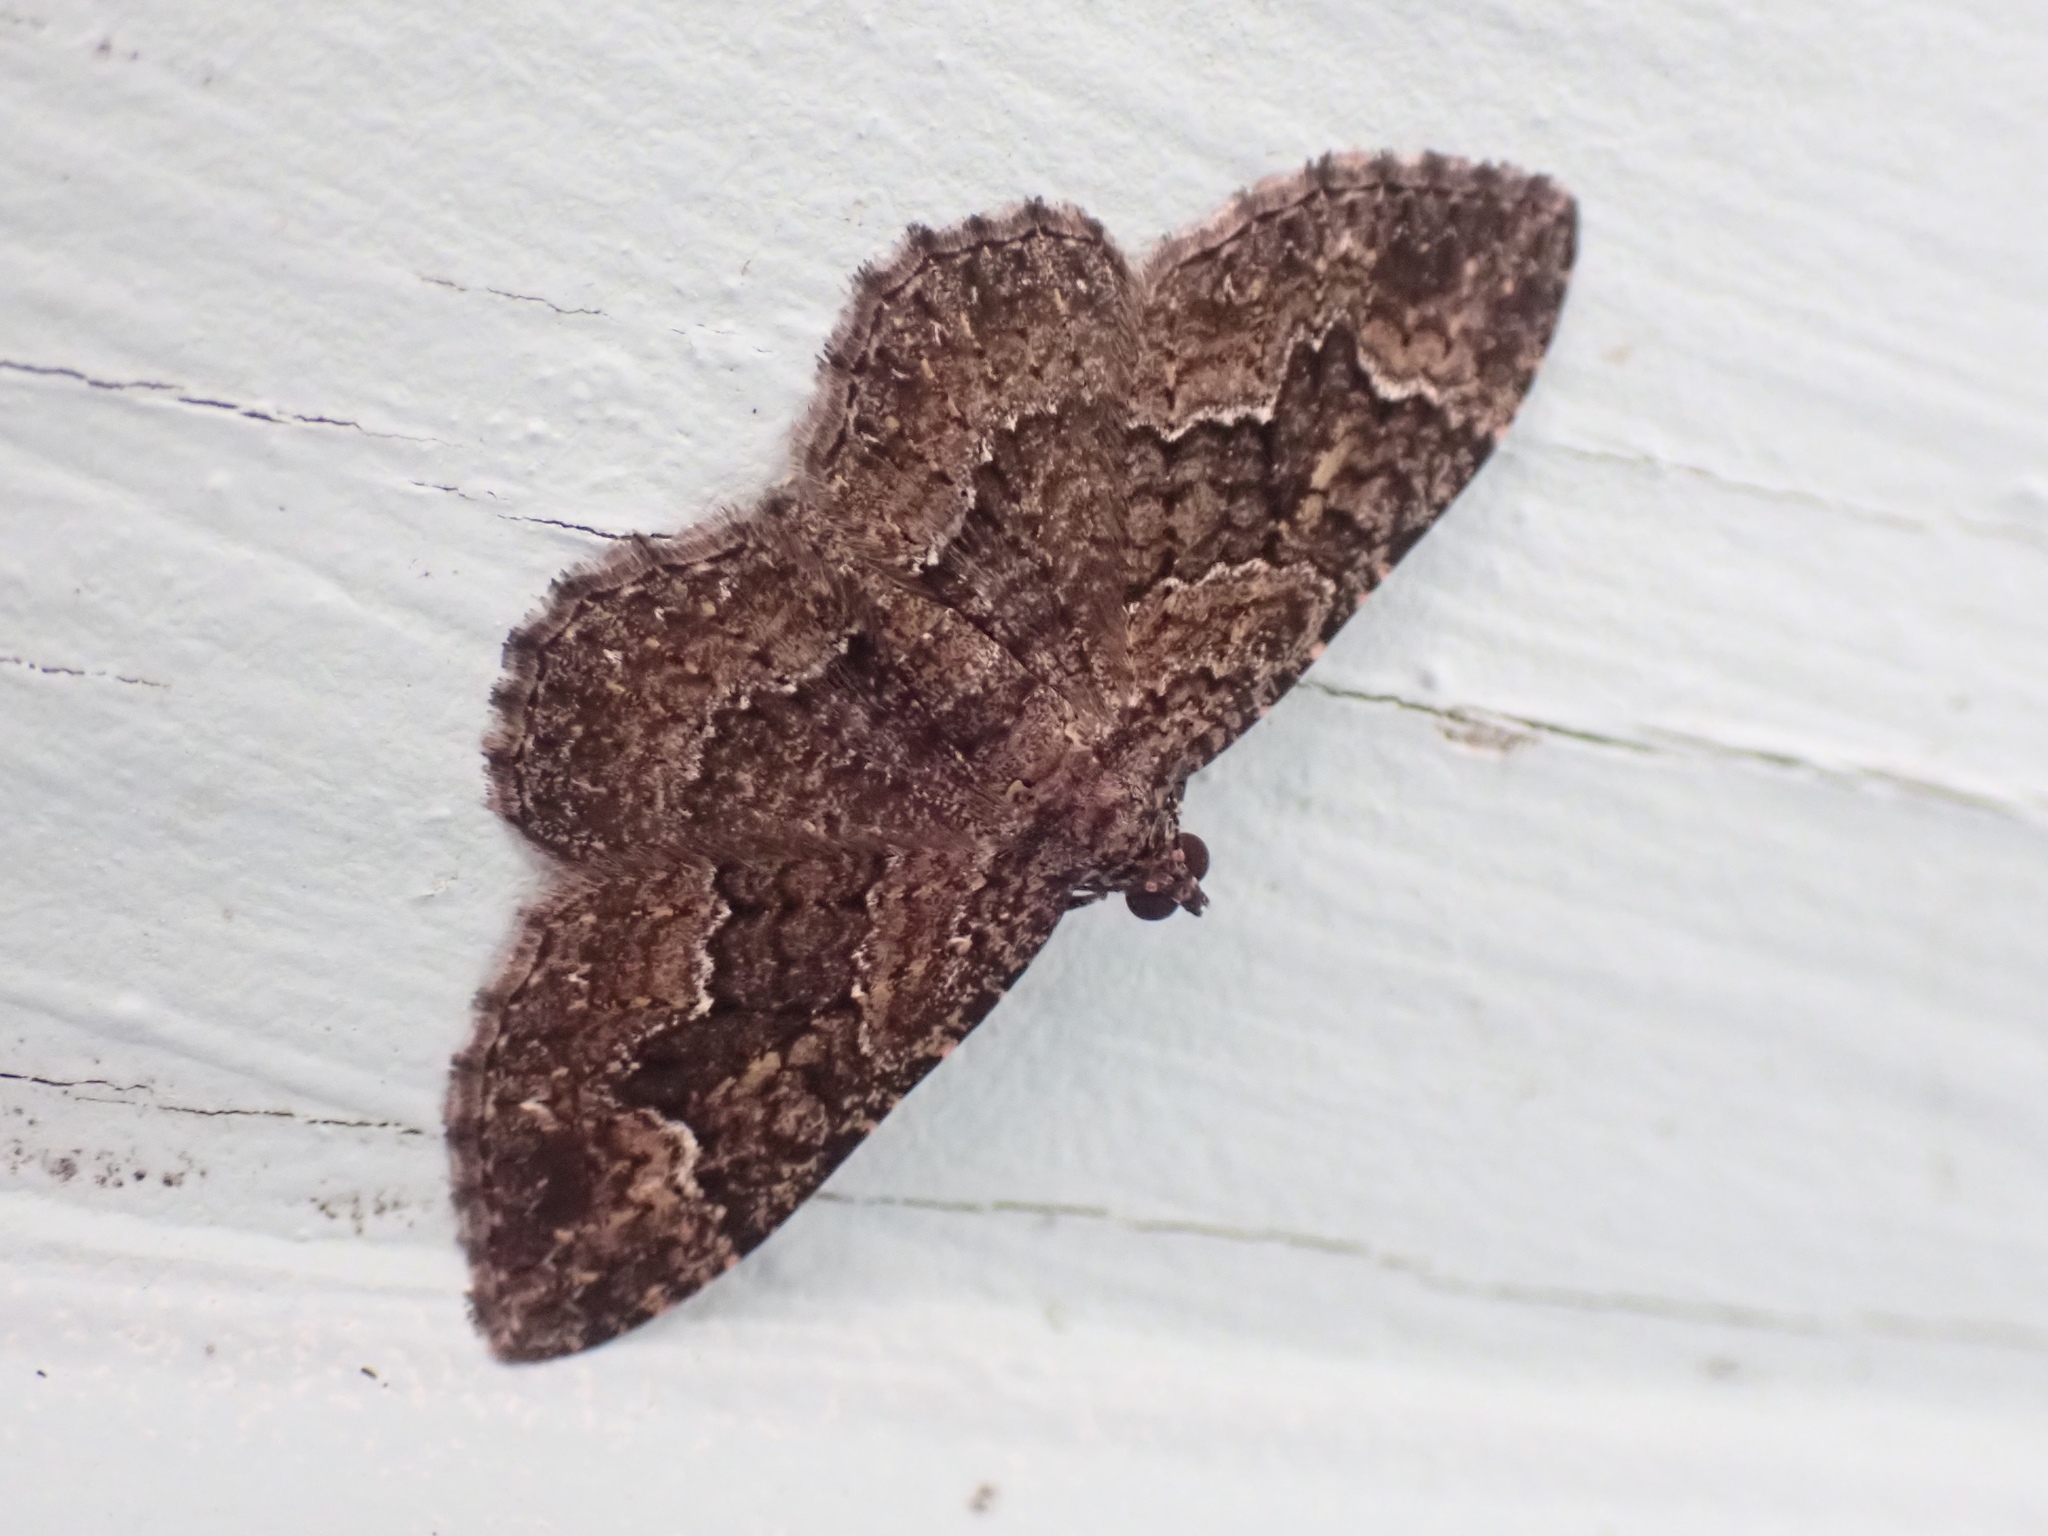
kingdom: Animalia
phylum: Arthropoda
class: Insecta
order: Lepidoptera
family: Geometridae
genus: Disclisioprocta
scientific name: Disclisioprocta stellata
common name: Somber carpet
